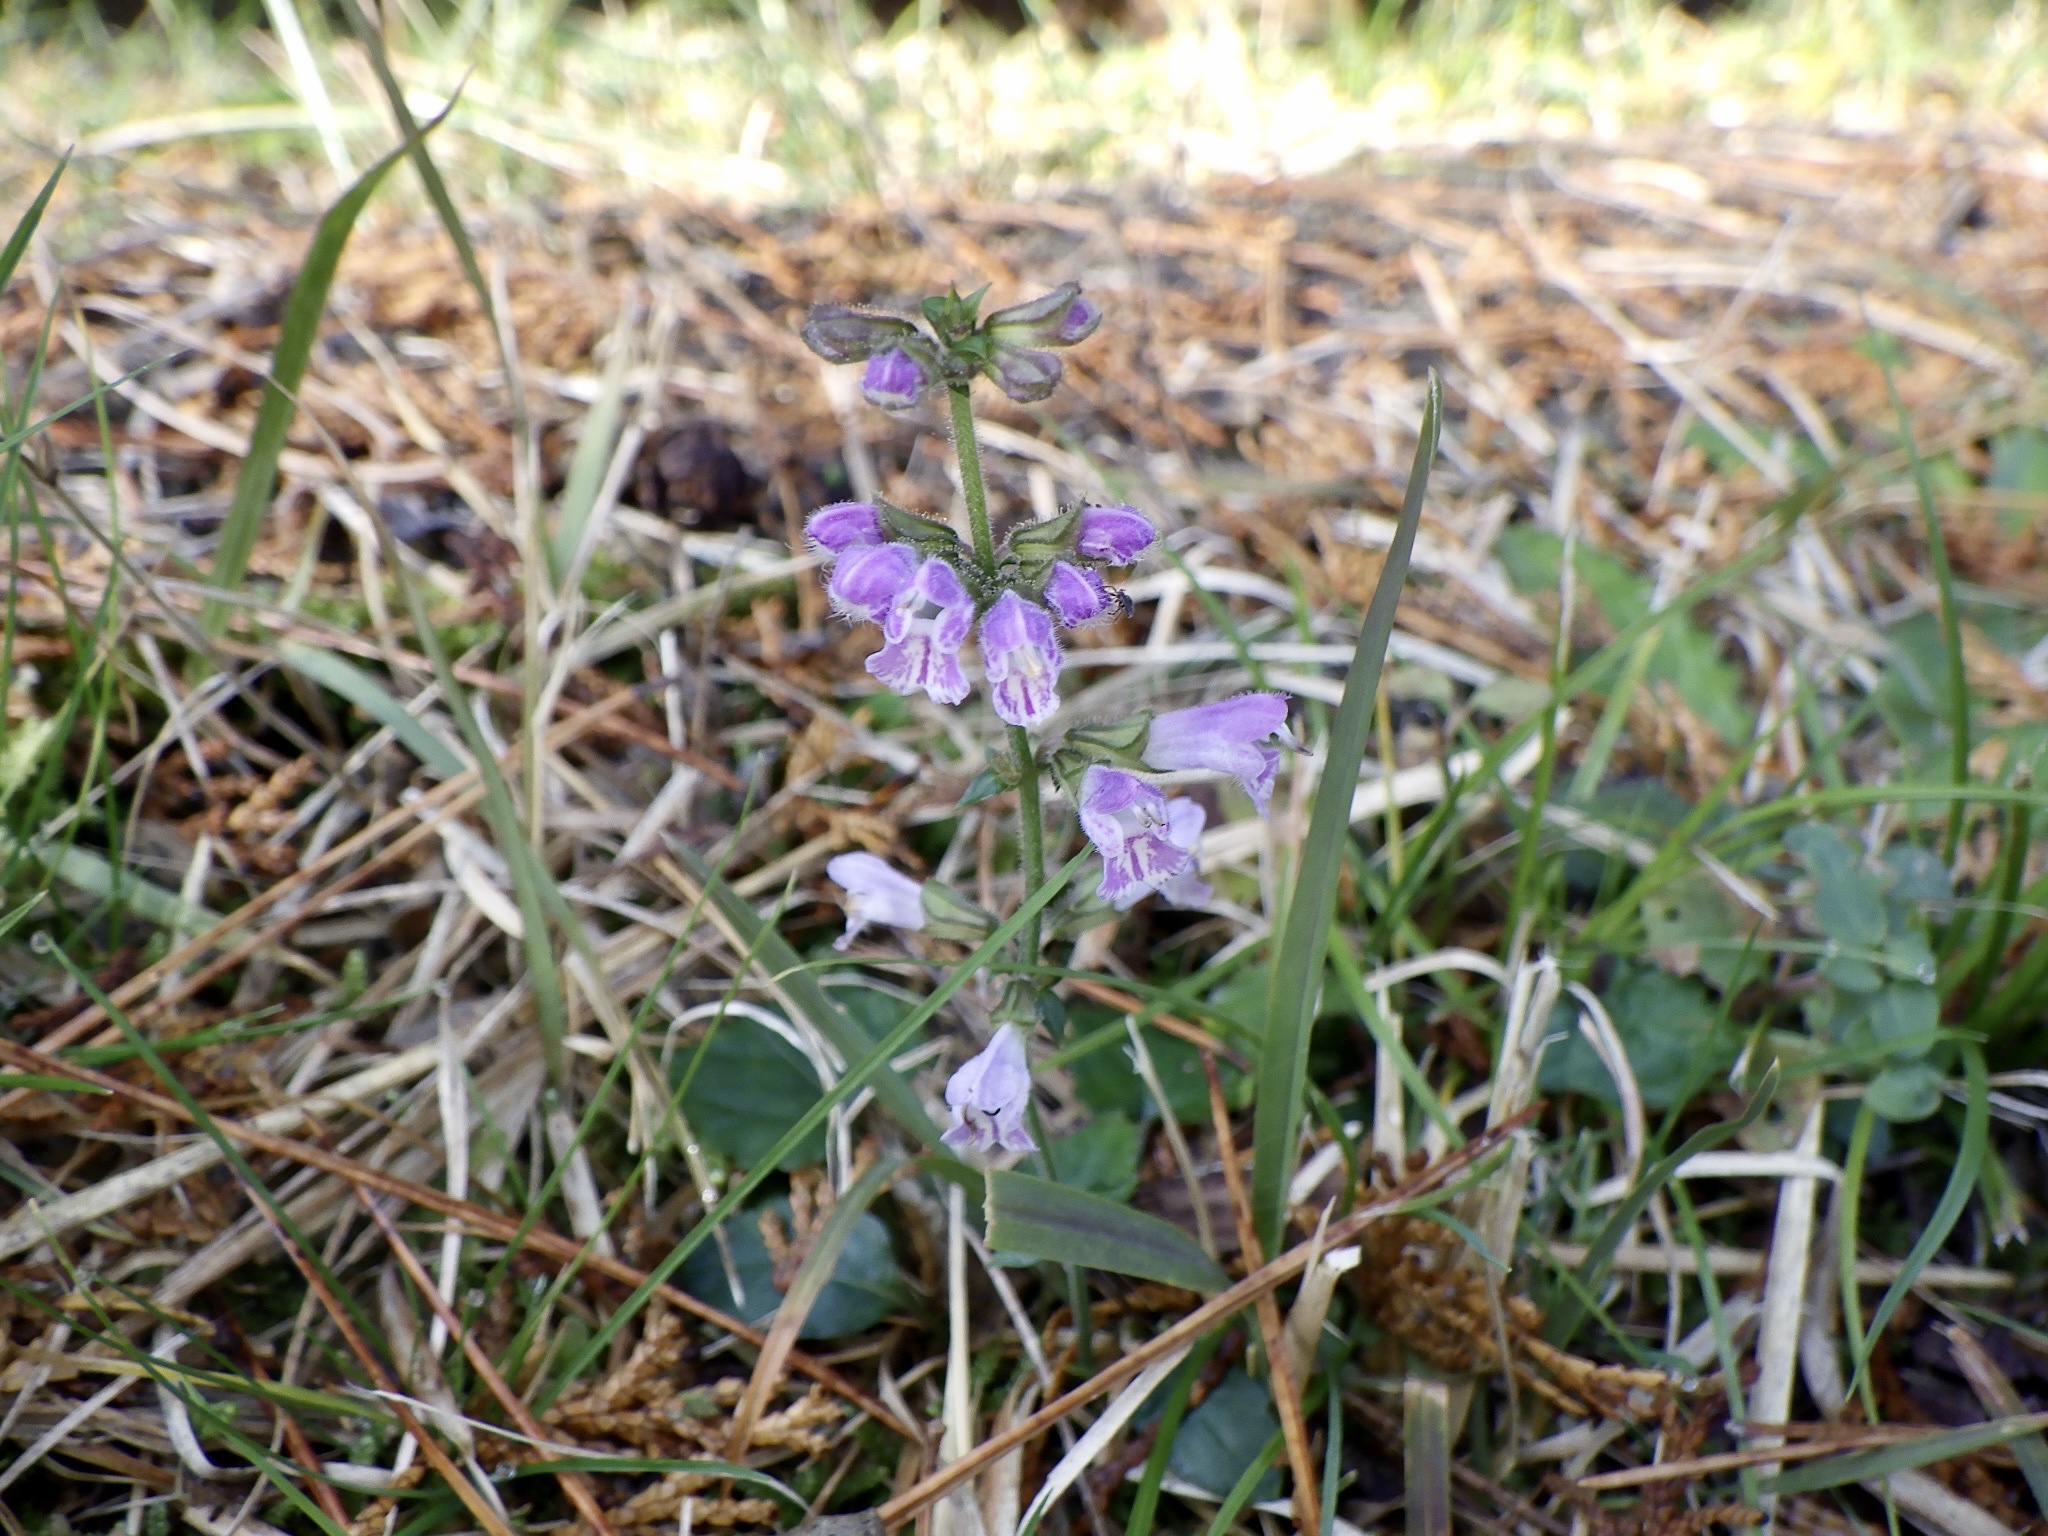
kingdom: Plantae
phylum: Tracheophyta
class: Magnoliopsida
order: Lamiales
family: Lamiaceae
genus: Salvia
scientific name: Salvia japonica
